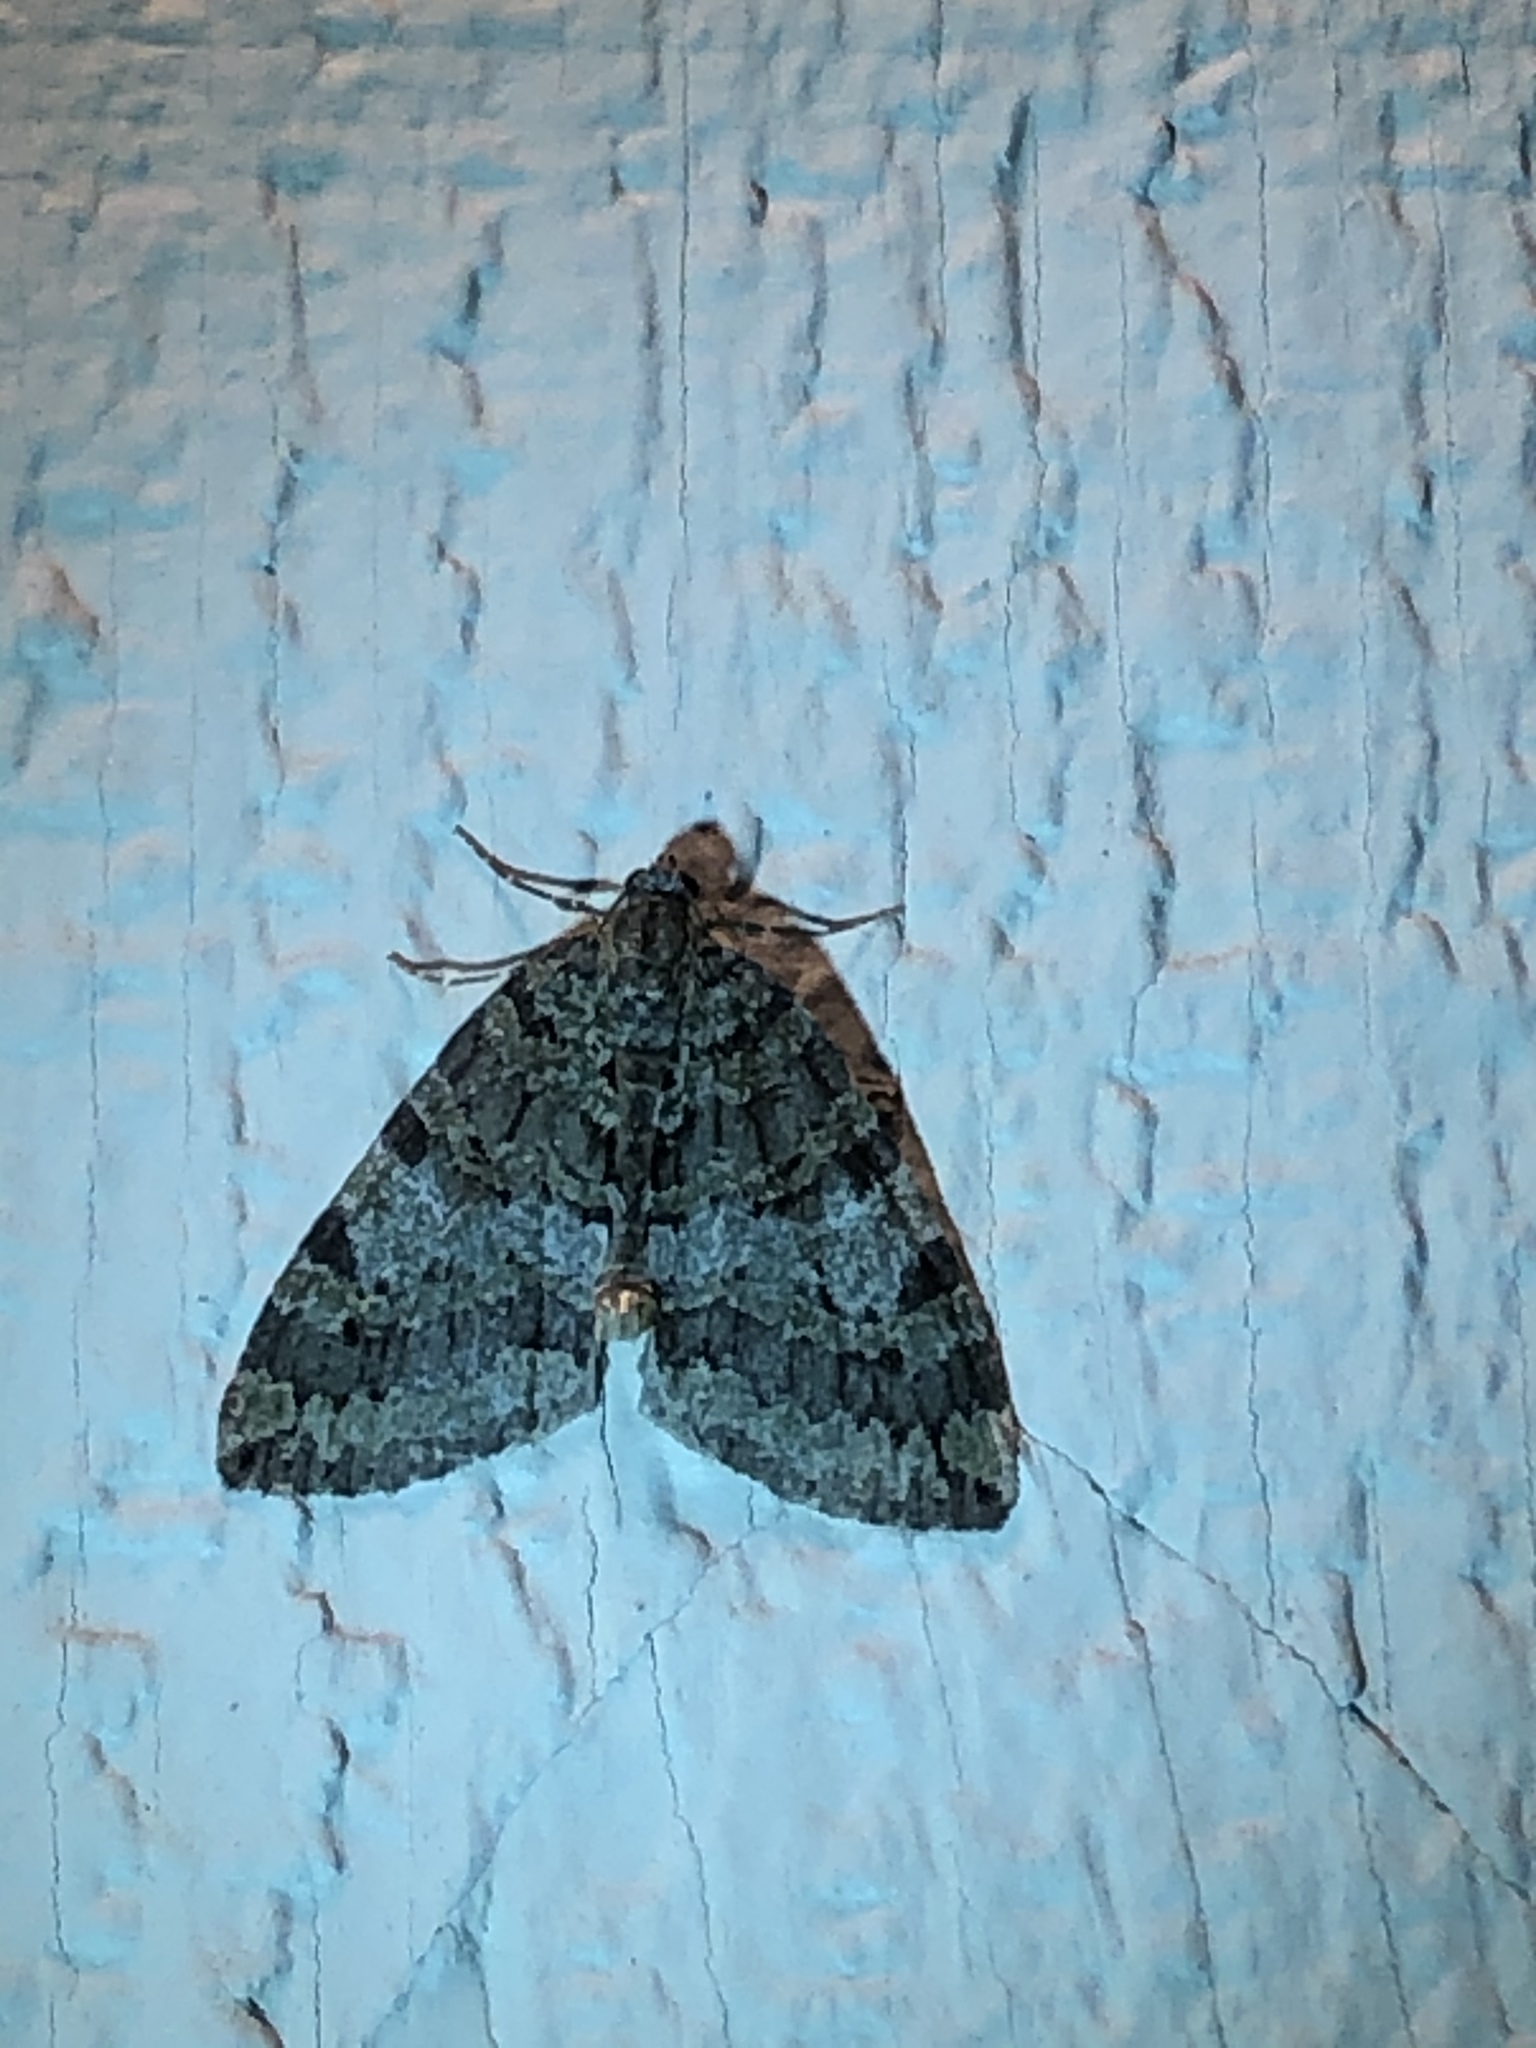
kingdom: Animalia
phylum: Arthropoda
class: Insecta
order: Lepidoptera
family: Geometridae
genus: Hydriomena
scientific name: Hydriomena nubilofasciata
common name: Oak winter highflier moth
